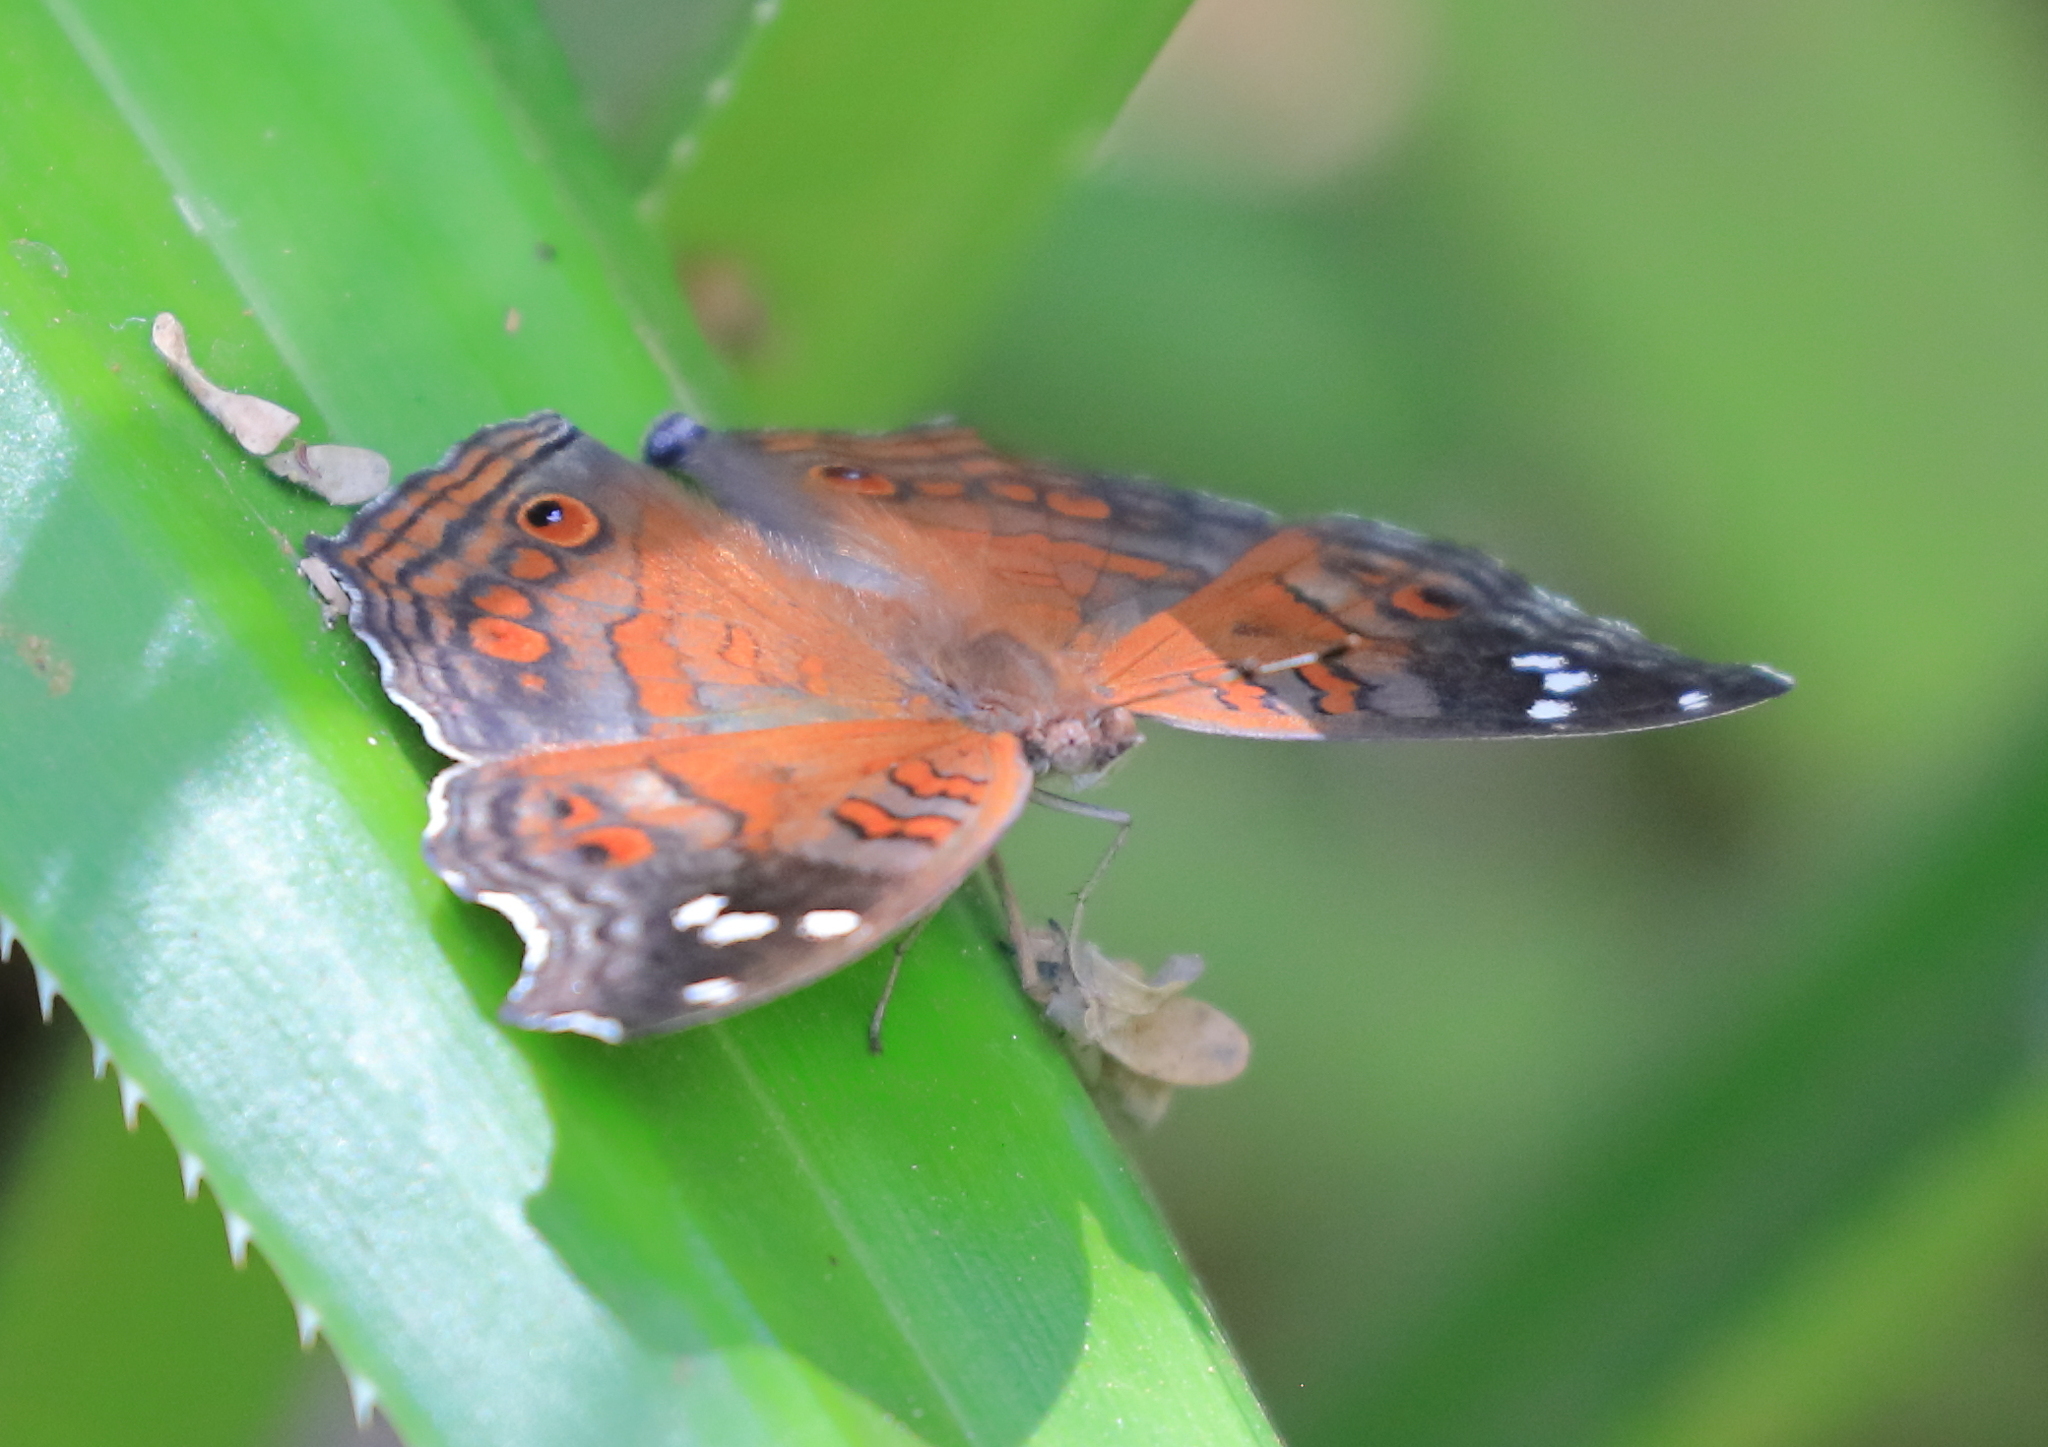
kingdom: Animalia
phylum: Arthropoda
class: Insecta
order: Lepidoptera
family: Nymphalidae
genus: Junonia
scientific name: Junonia natalica
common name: Brown pansy
